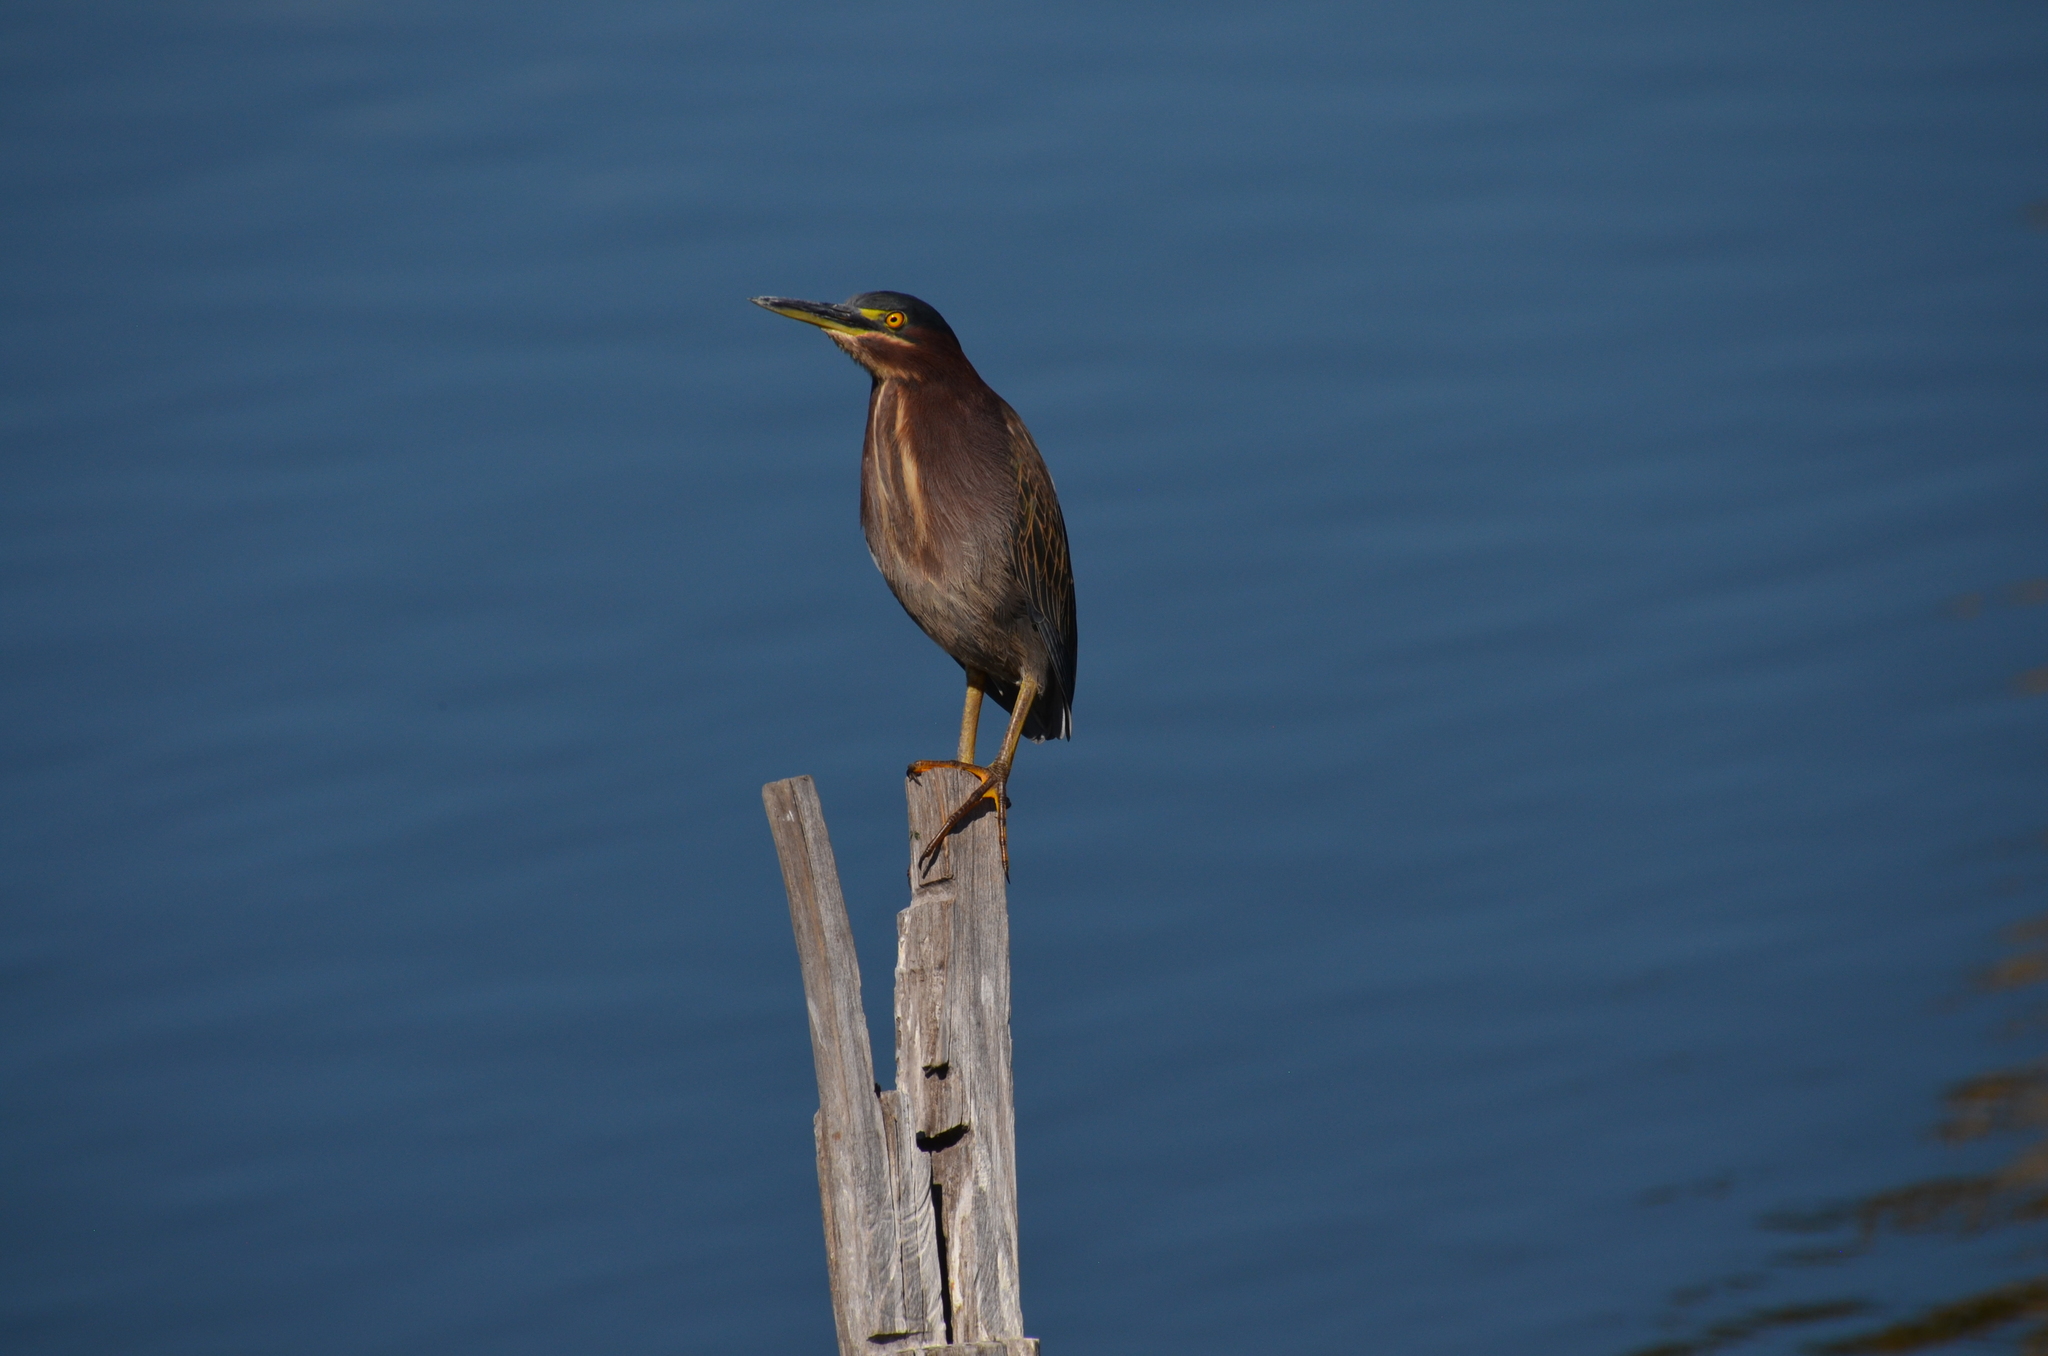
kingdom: Animalia
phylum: Chordata
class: Aves
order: Pelecaniformes
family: Ardeidae
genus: Butorides
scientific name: Butorides virescens
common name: Green heron
